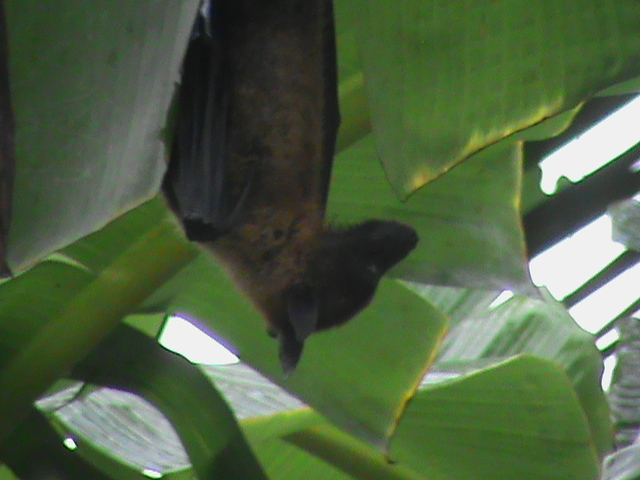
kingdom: Animalia
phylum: Chordata
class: Mammalia
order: Chiroptera
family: Pteropodidae
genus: Pteropus
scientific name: Pteropus vampyrus
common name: Large flying fox
